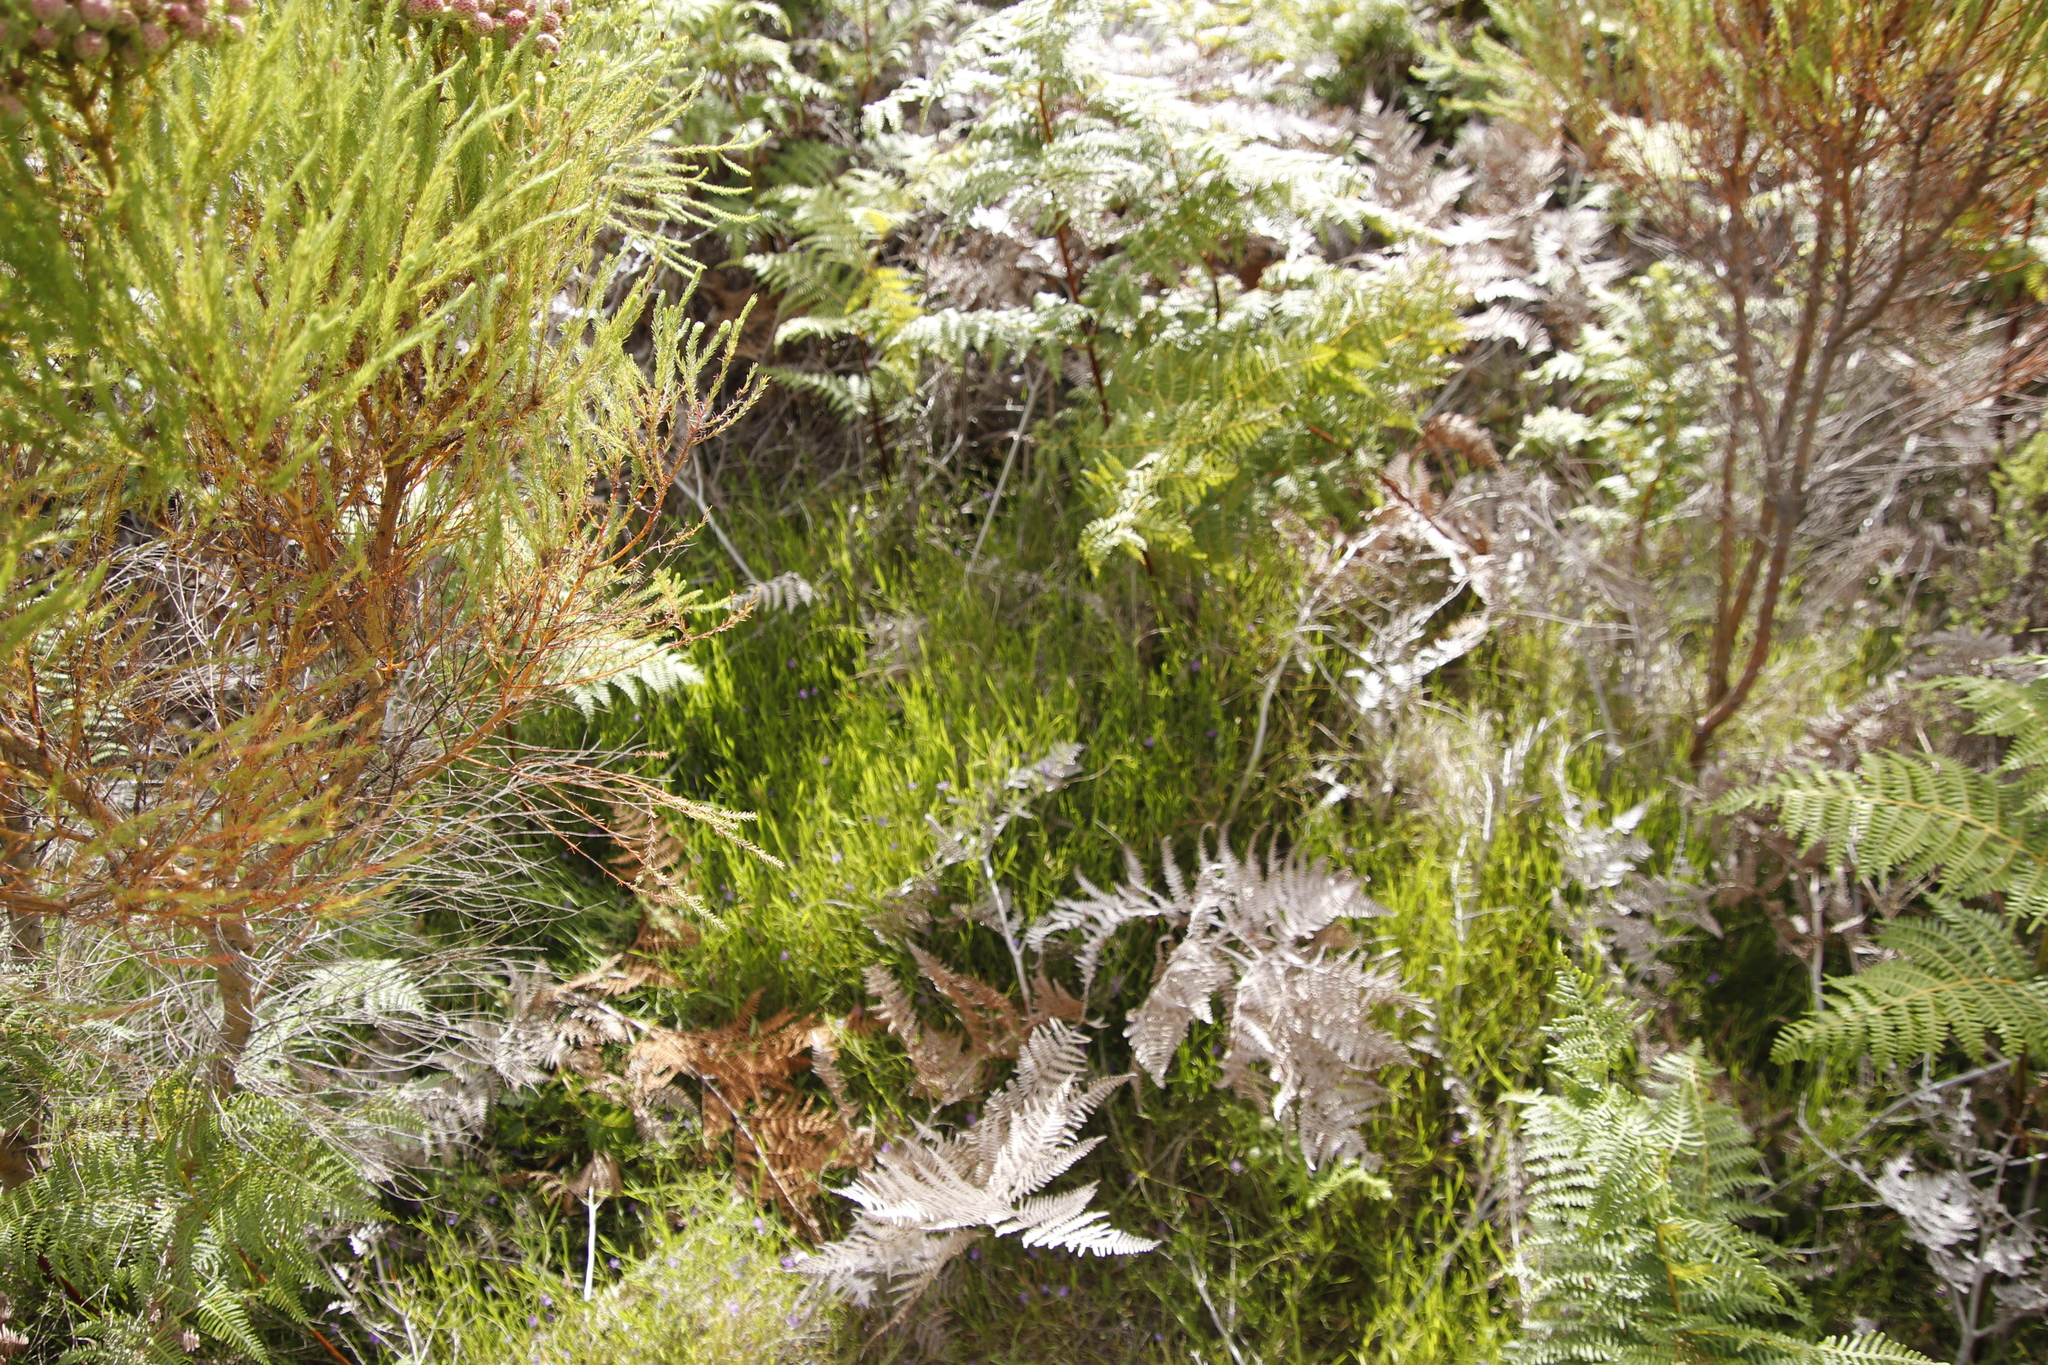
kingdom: Plantae
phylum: Tracheophyta
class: Magnoliopsida
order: Fabales
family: Fabaceae
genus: Psoralea
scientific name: Psoralea laxa
